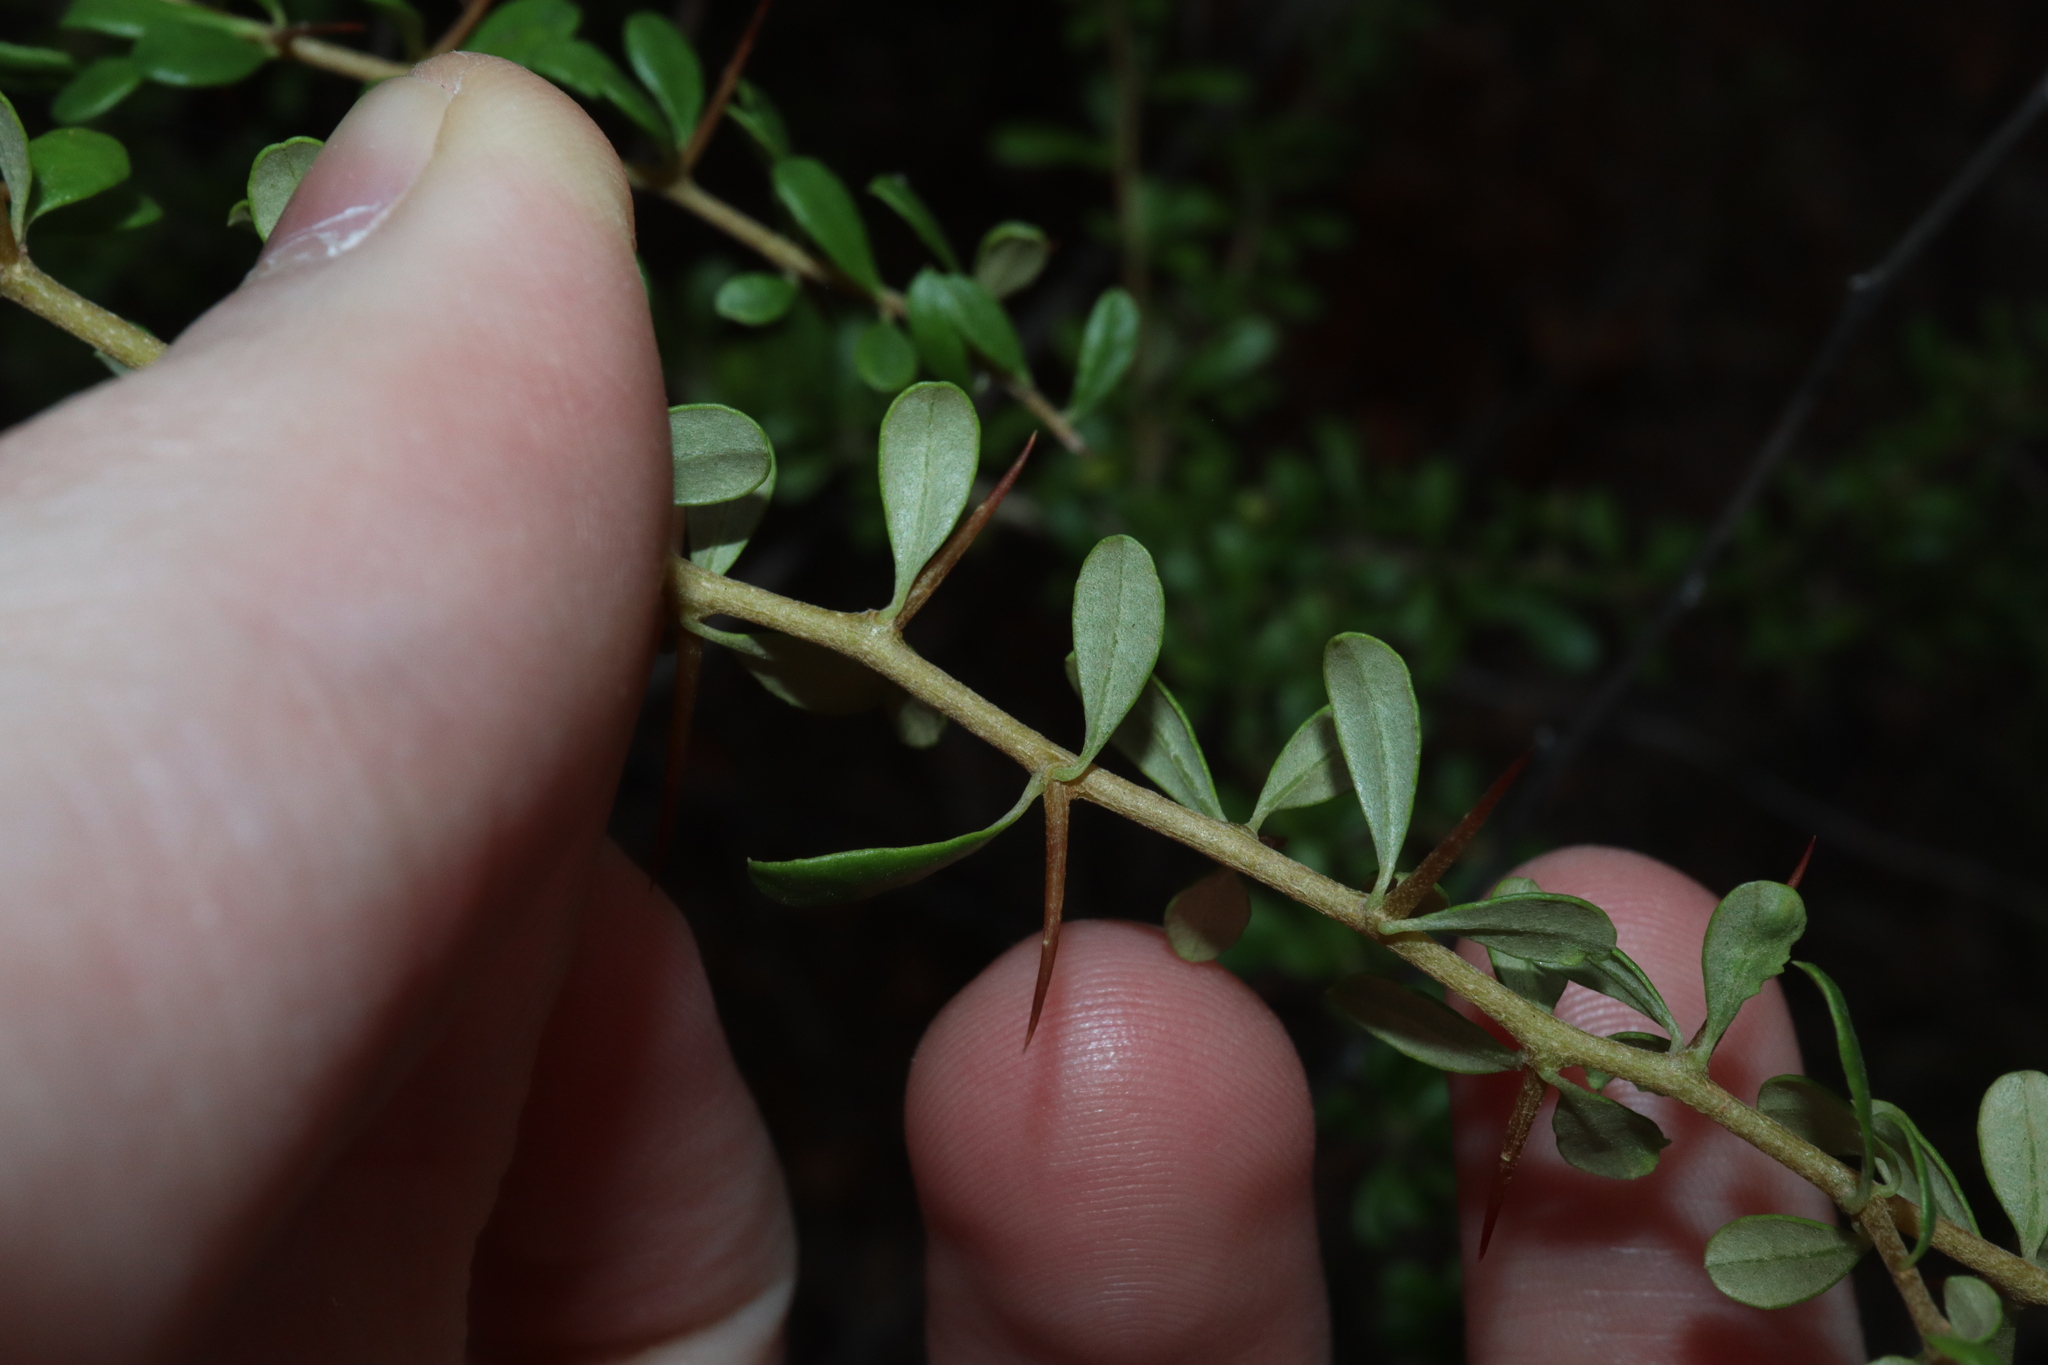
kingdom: Plantae
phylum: Tracheophyta
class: Magnoliopsida
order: Apiales
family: Pittosporaceae
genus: Bursaria
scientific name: Bursaria spinosa
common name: Australian blackthorn
